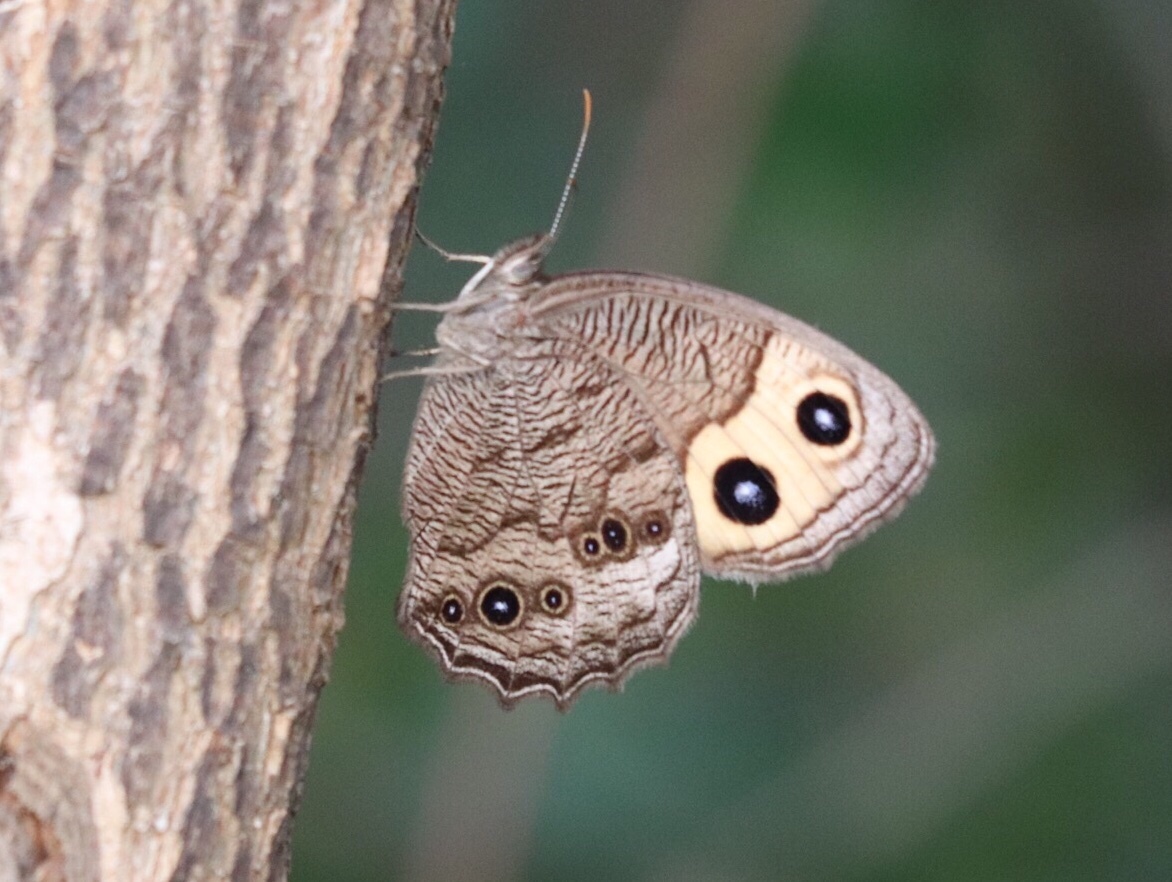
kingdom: Animalia
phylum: Arthropoda
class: Insecta
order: Lepidoptera
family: Nymphalidae
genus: Cercyonis
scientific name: Cercyonis pegala
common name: Common wood-nymph
